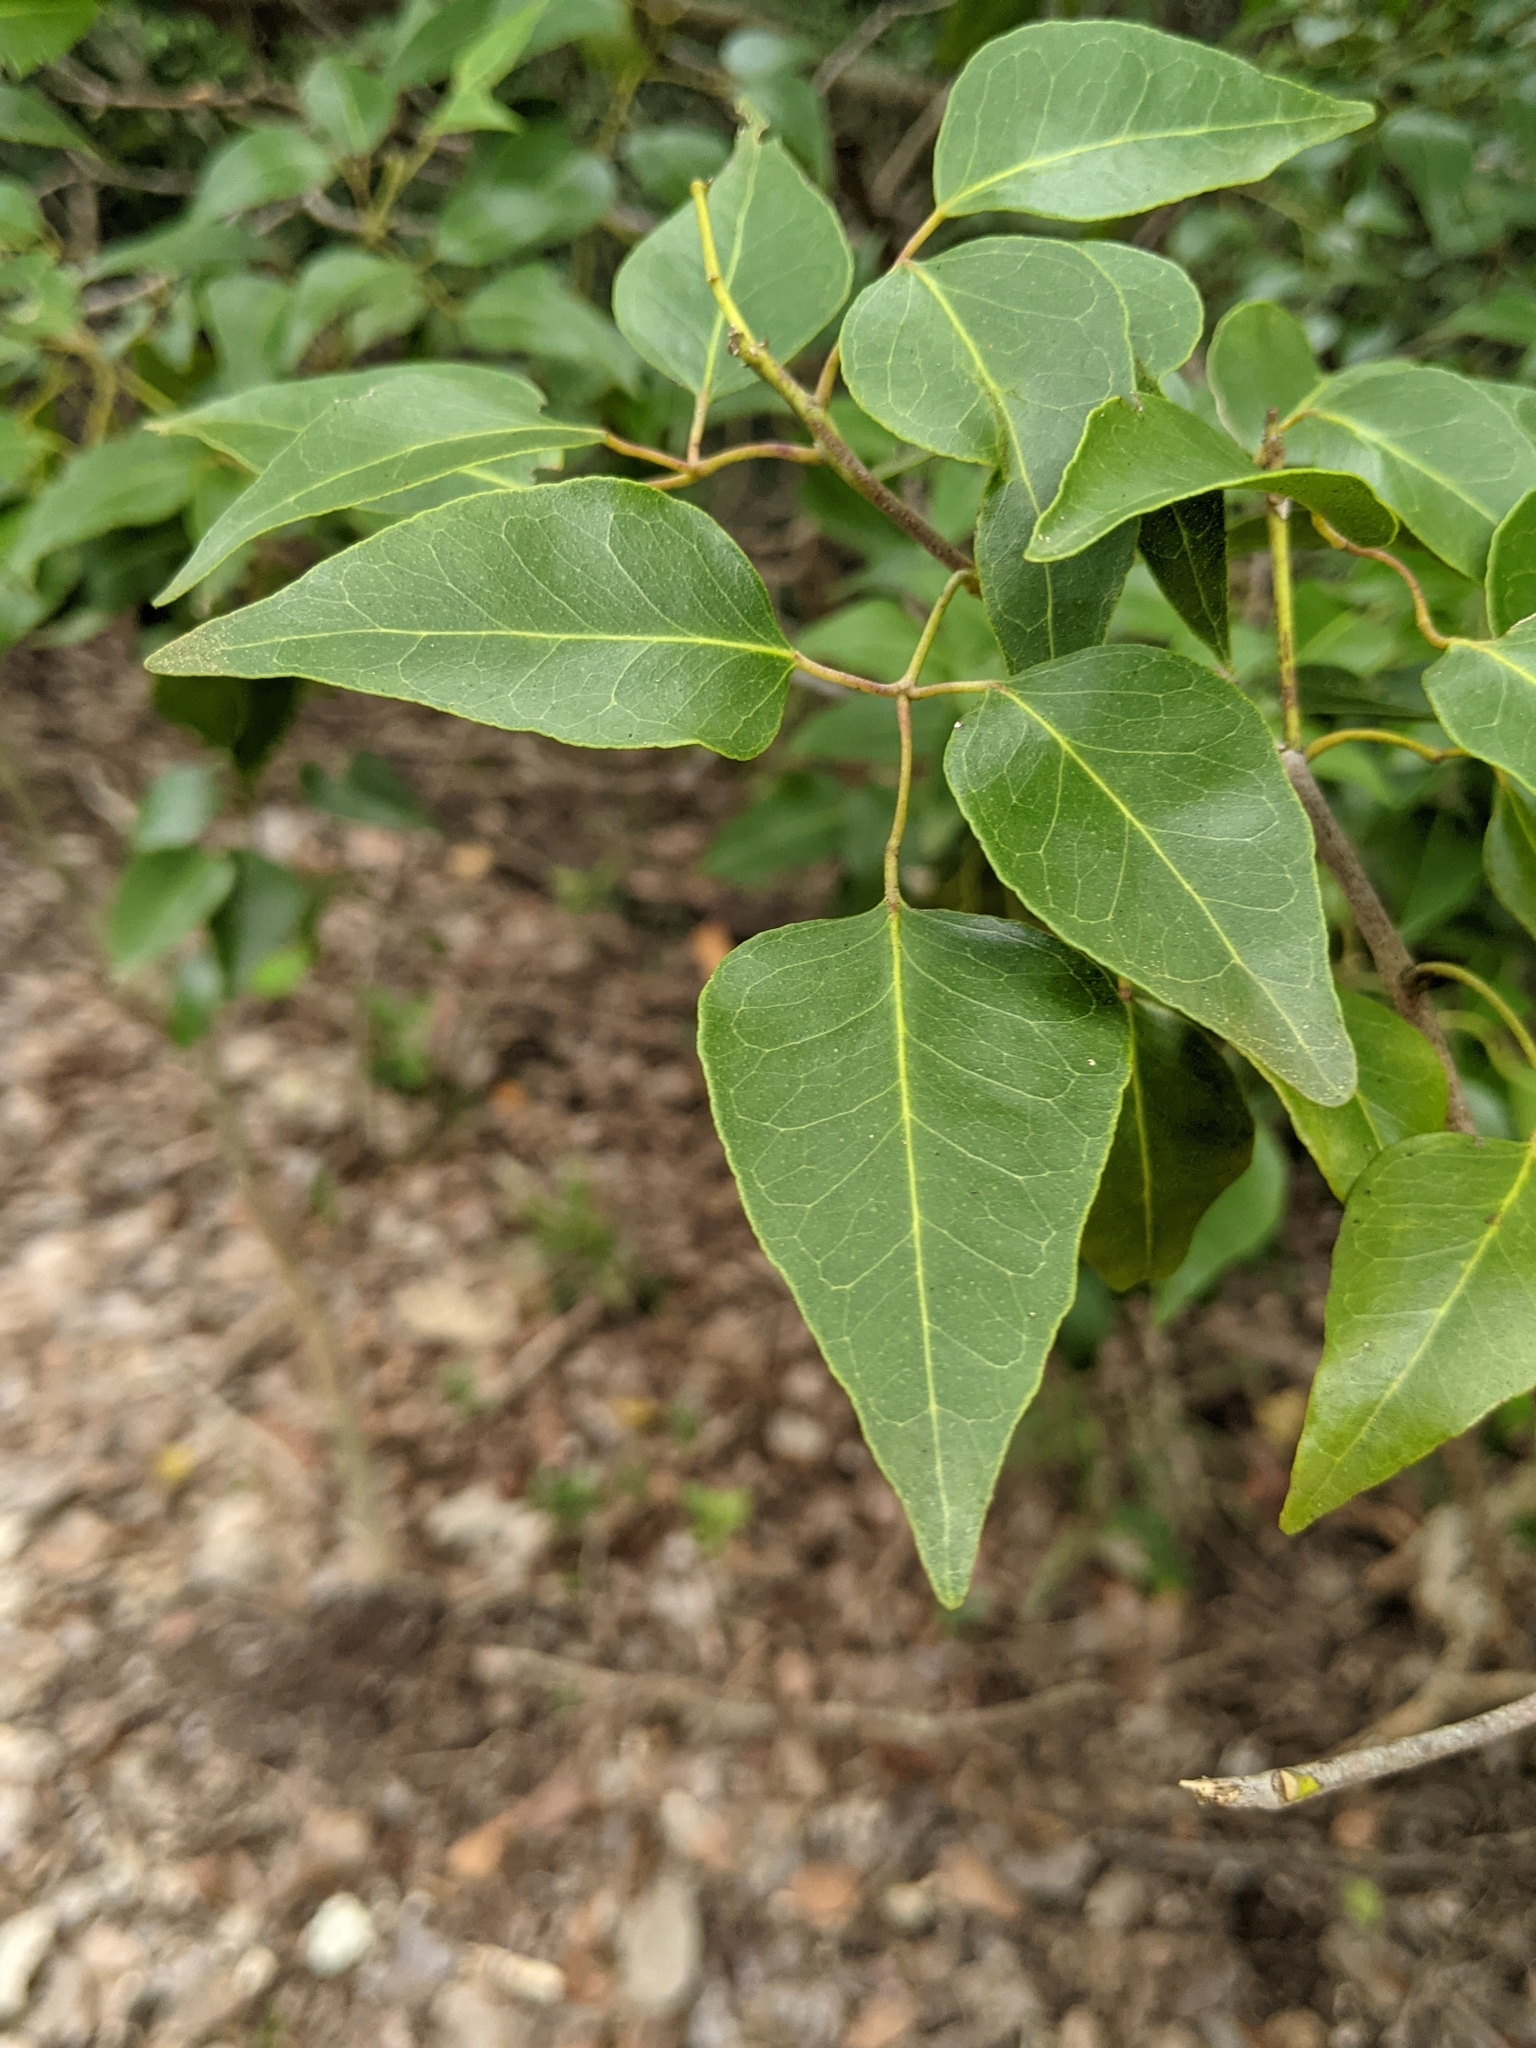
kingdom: Plantae
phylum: Tracheophyta
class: Magnoliopsida
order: Sapindales
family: Rutaceae
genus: Amyris
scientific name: Amyris elemifera
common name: Sea amyris
